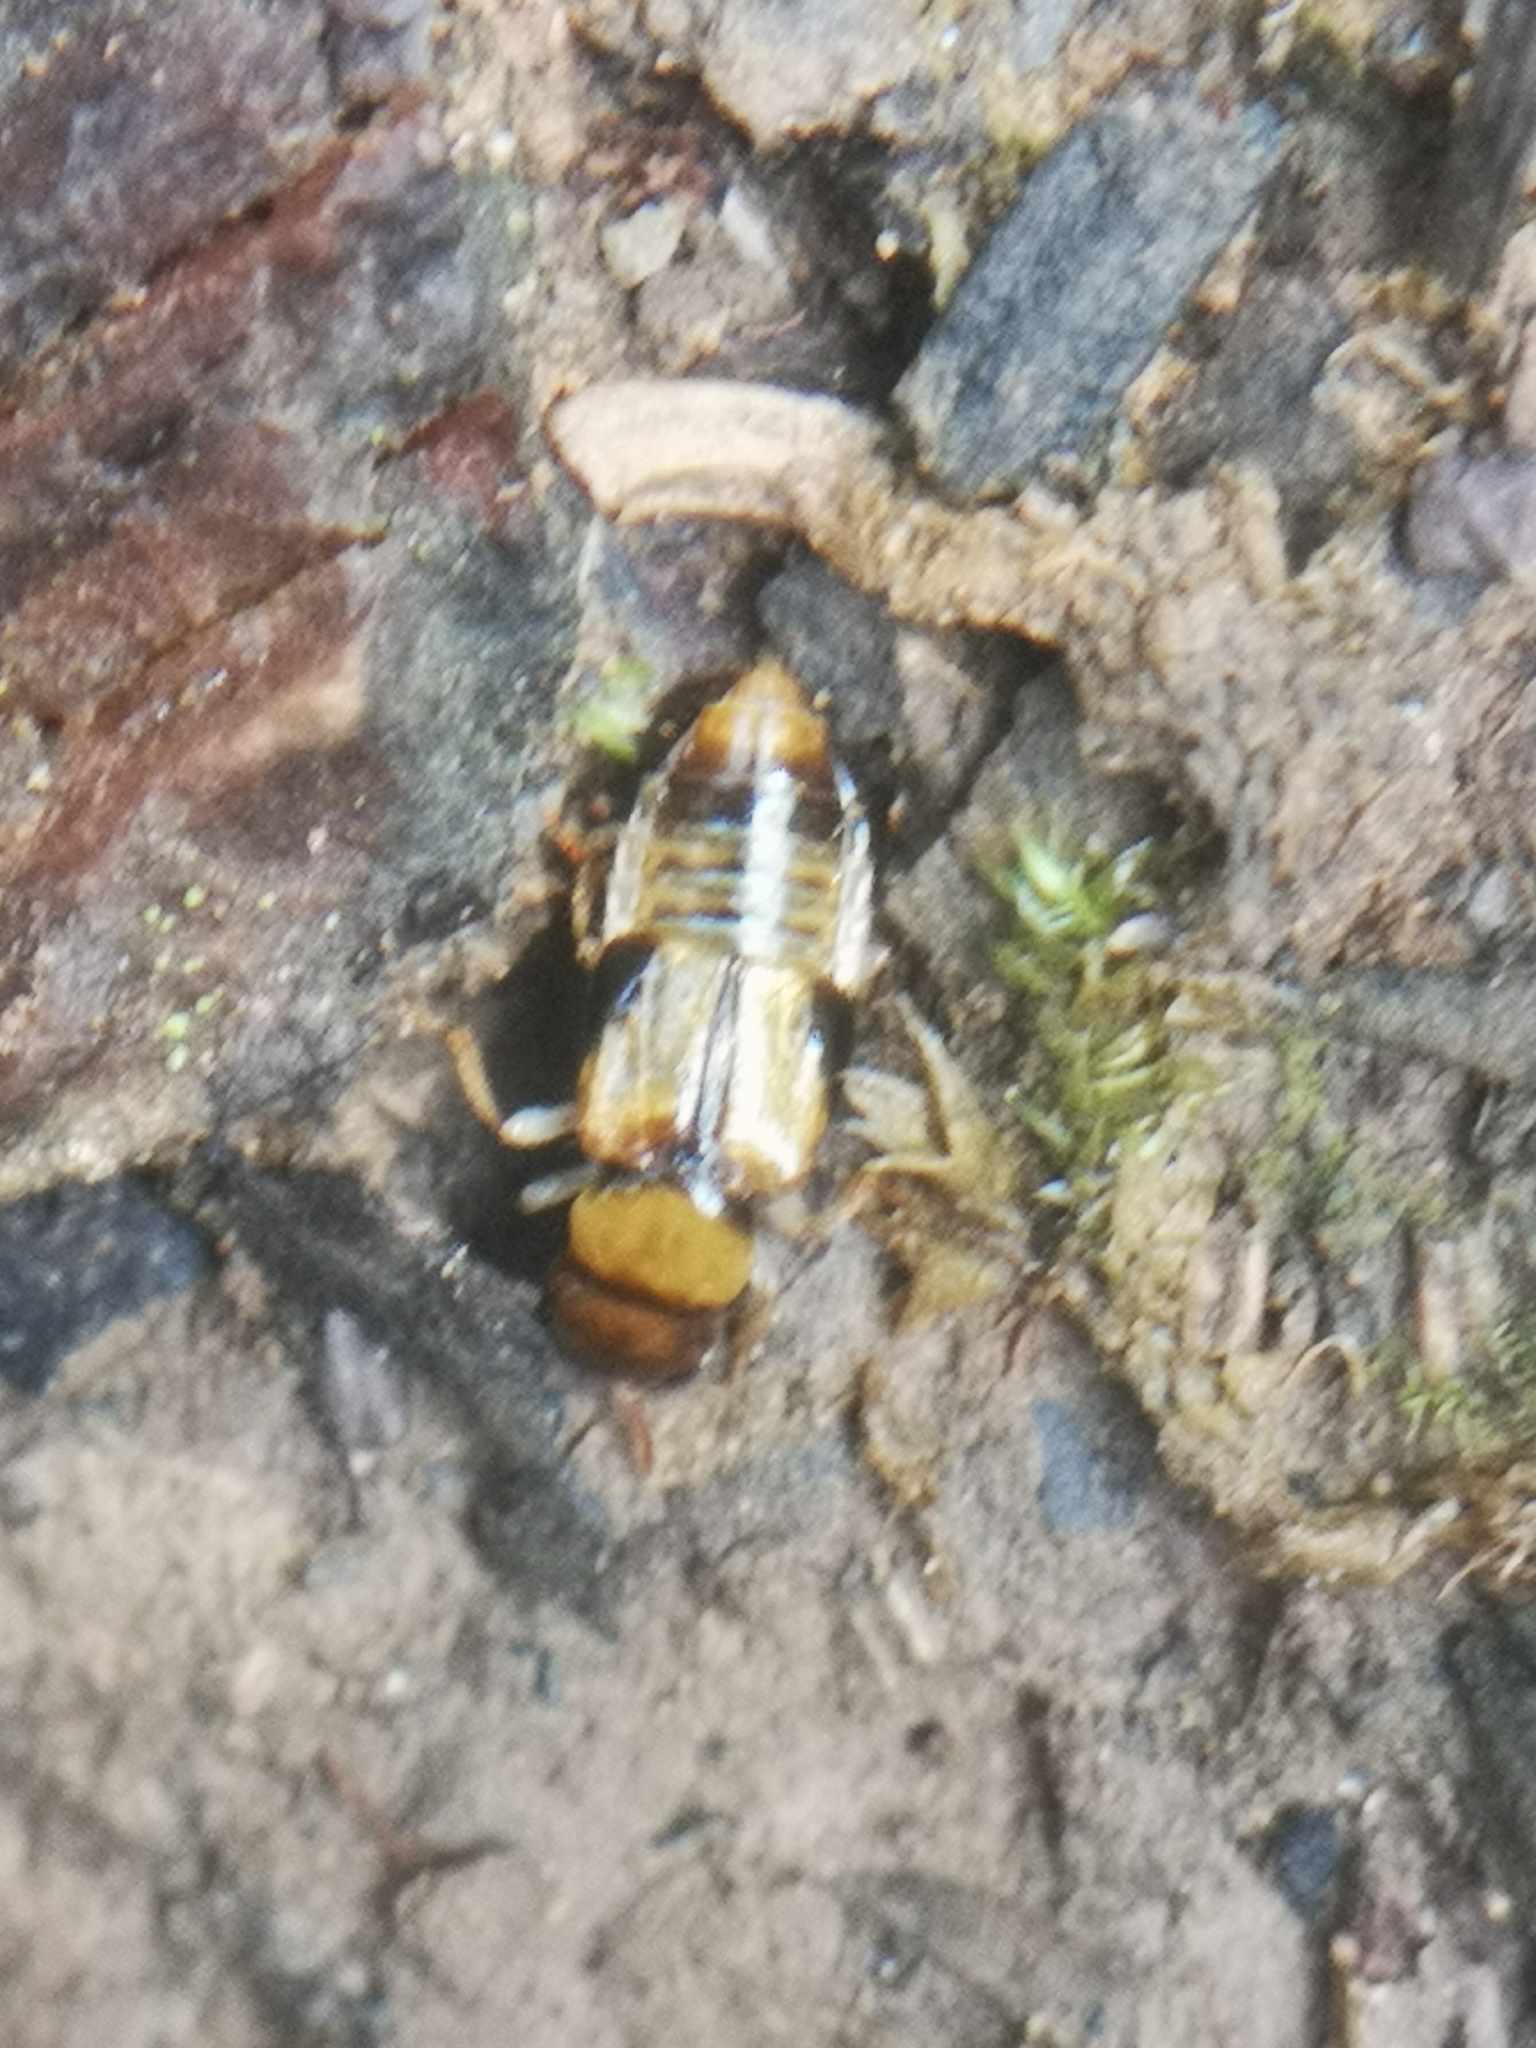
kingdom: Animalia
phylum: Arthropoda
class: Insecta
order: Coleoptera
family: Staphylinidae
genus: Oxyporus
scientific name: Oxyporus vittatus
